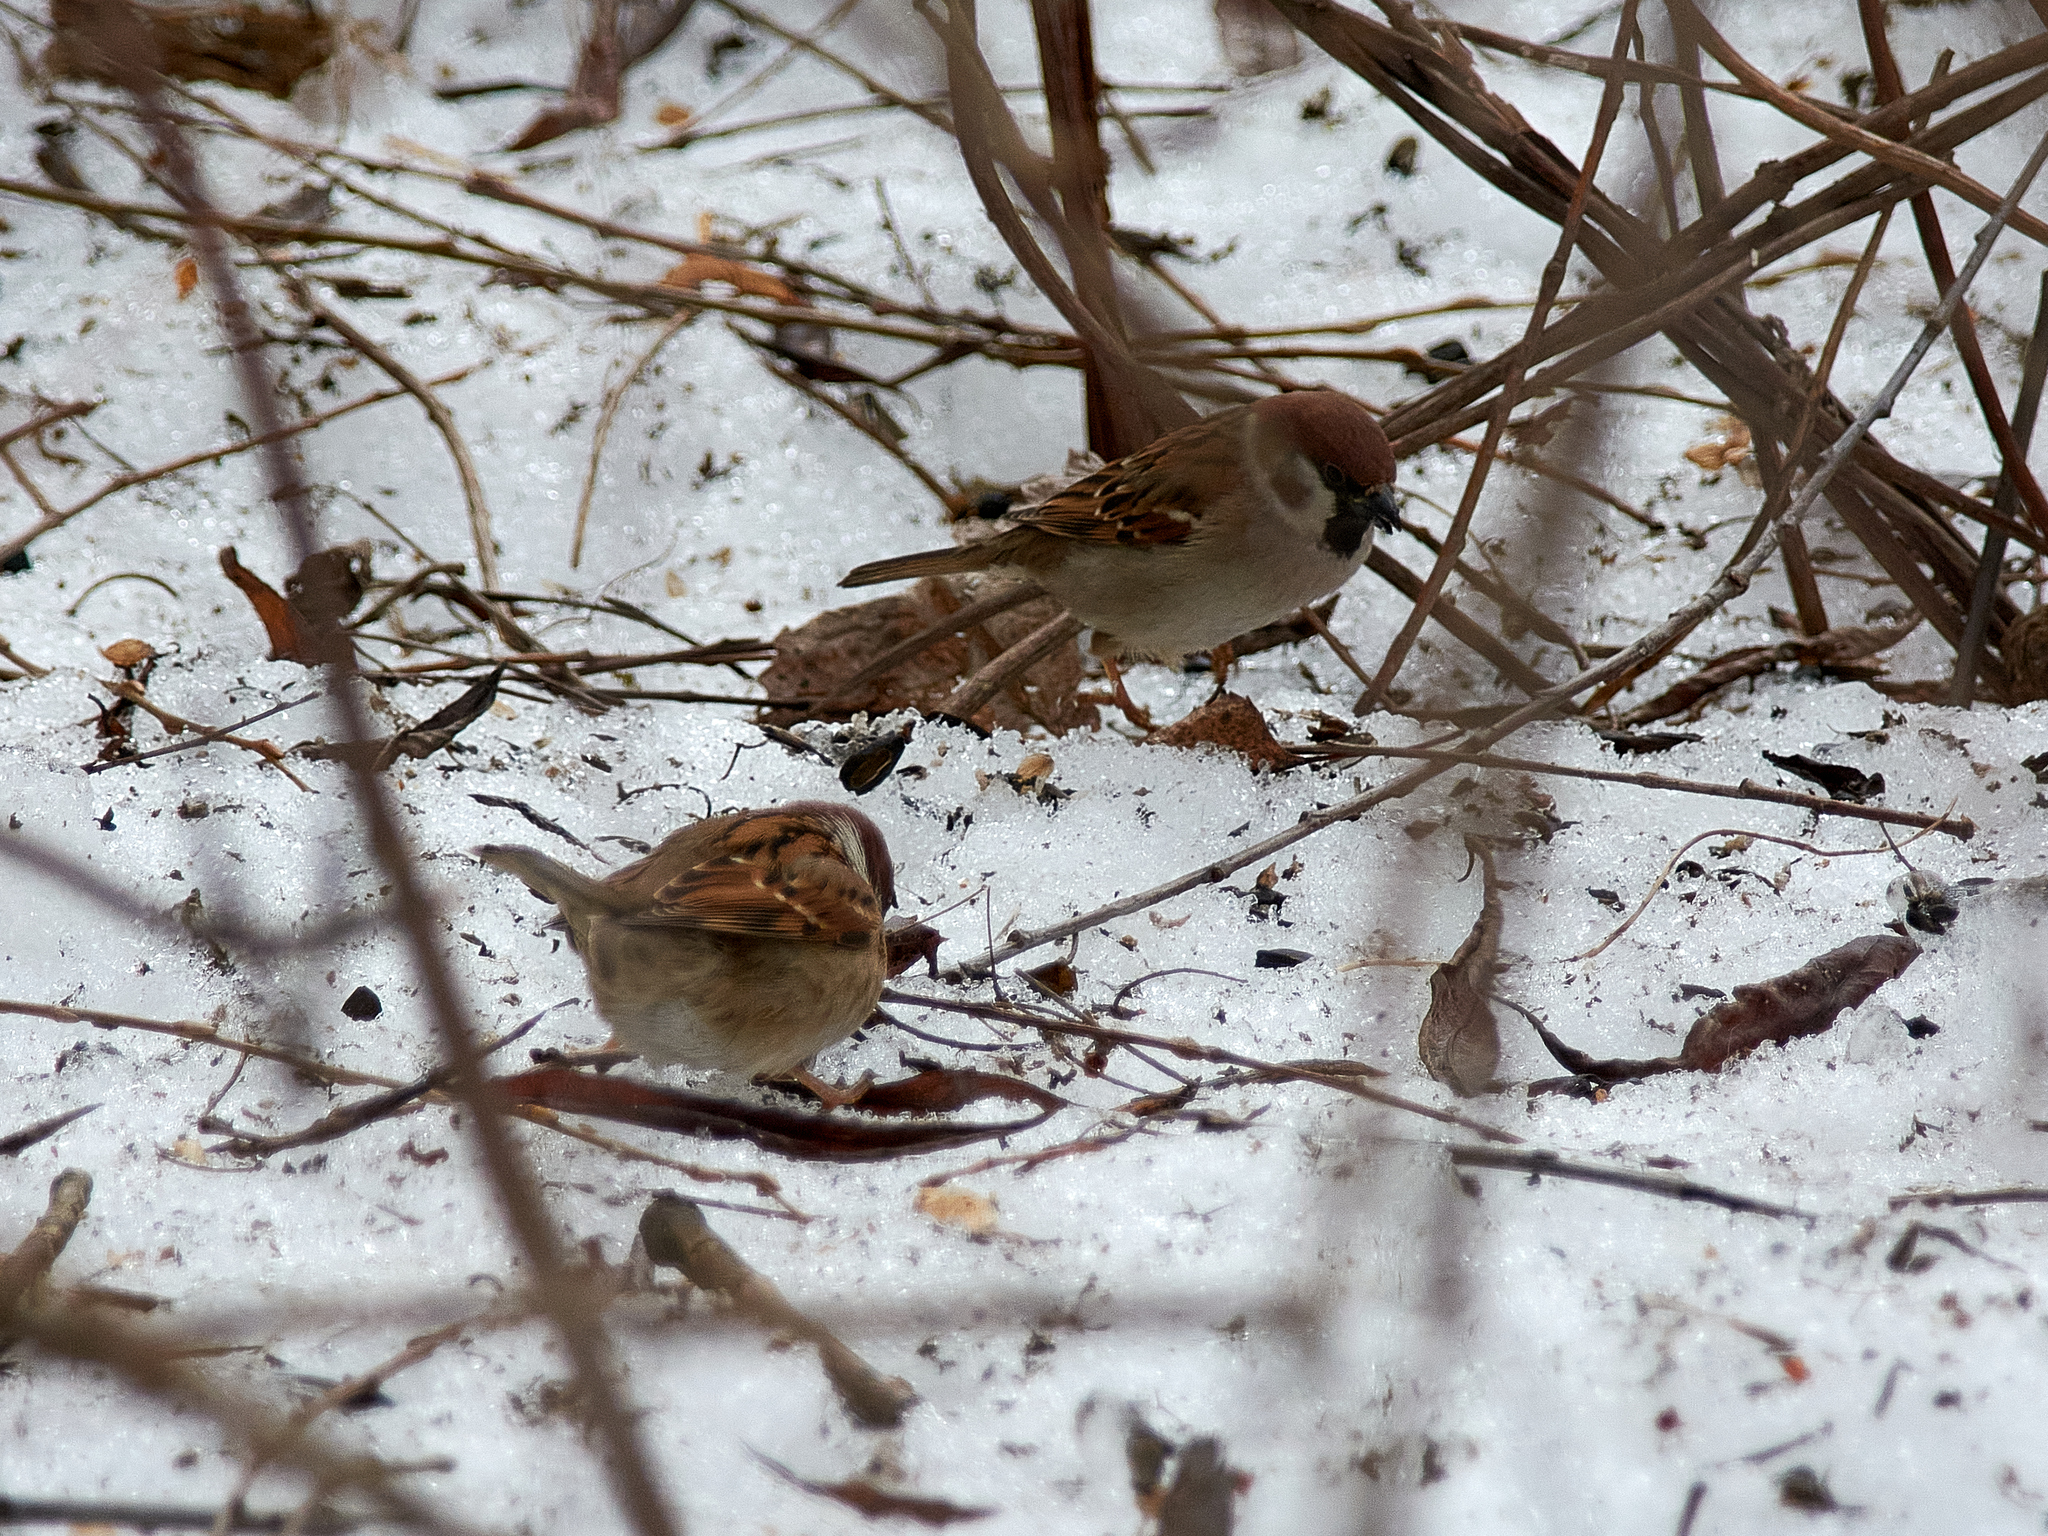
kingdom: Animalia
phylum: Chordata
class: Aves
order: Passeriformes
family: Passeridae
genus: Passer
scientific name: Passer montanus
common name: Eurasian tree sparrow
